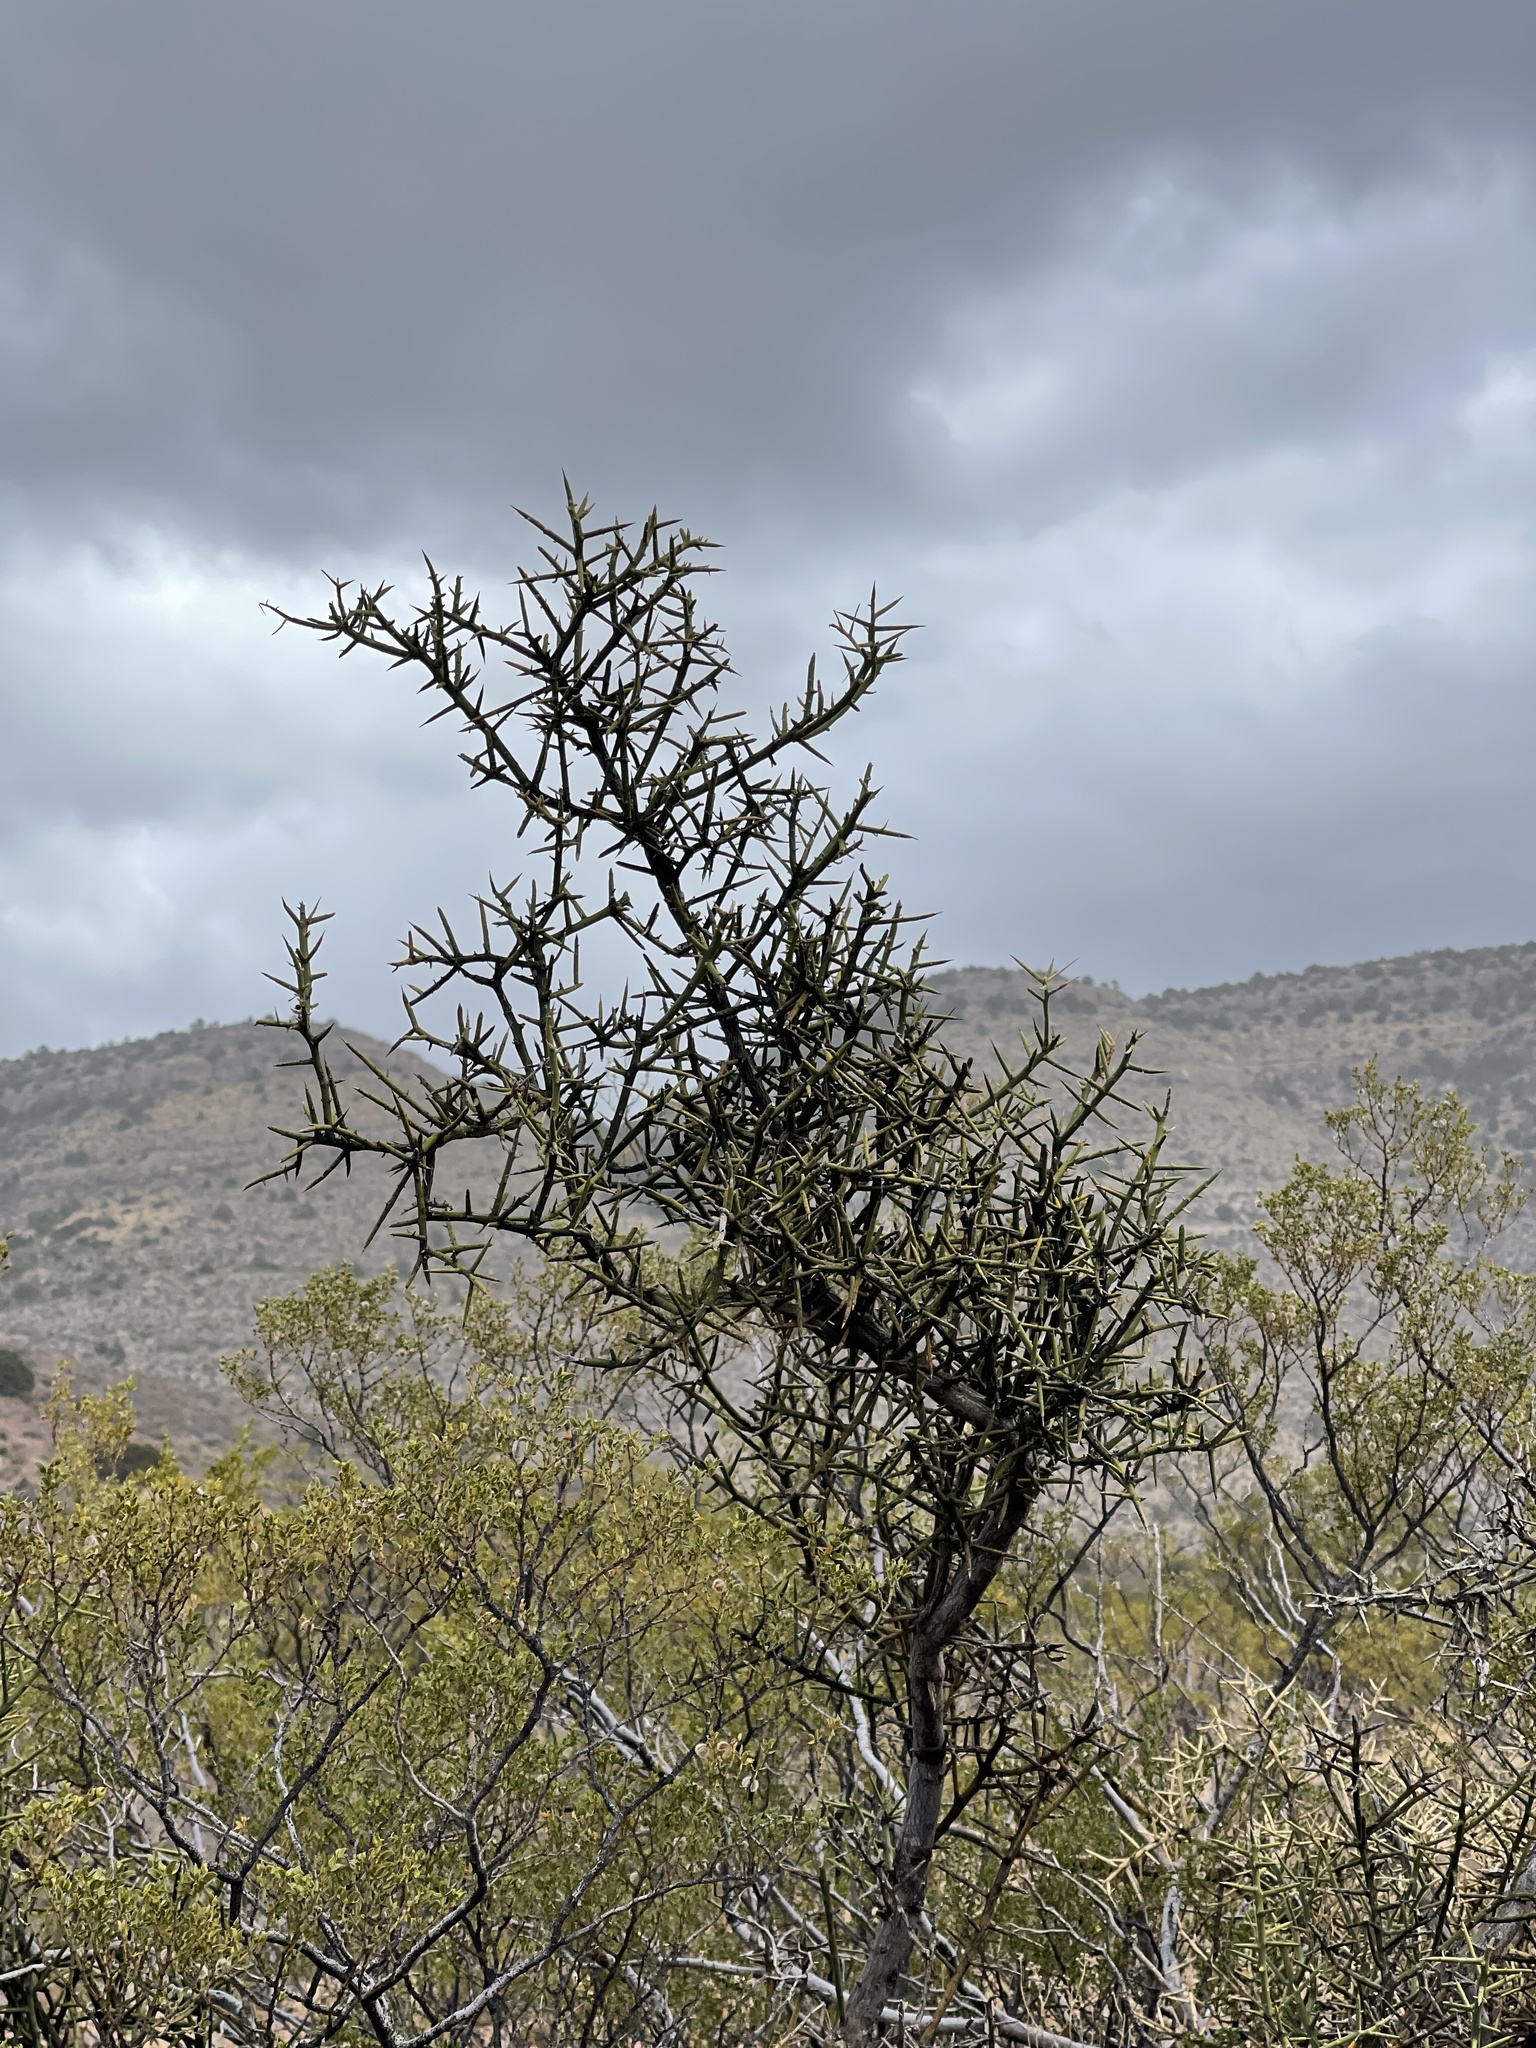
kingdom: Plantae
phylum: Tracheophyta
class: Magnoliopsida
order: Brassicales
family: Koeberliniaceae
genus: Koeberlinia
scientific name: Koeberlinia spinosa
